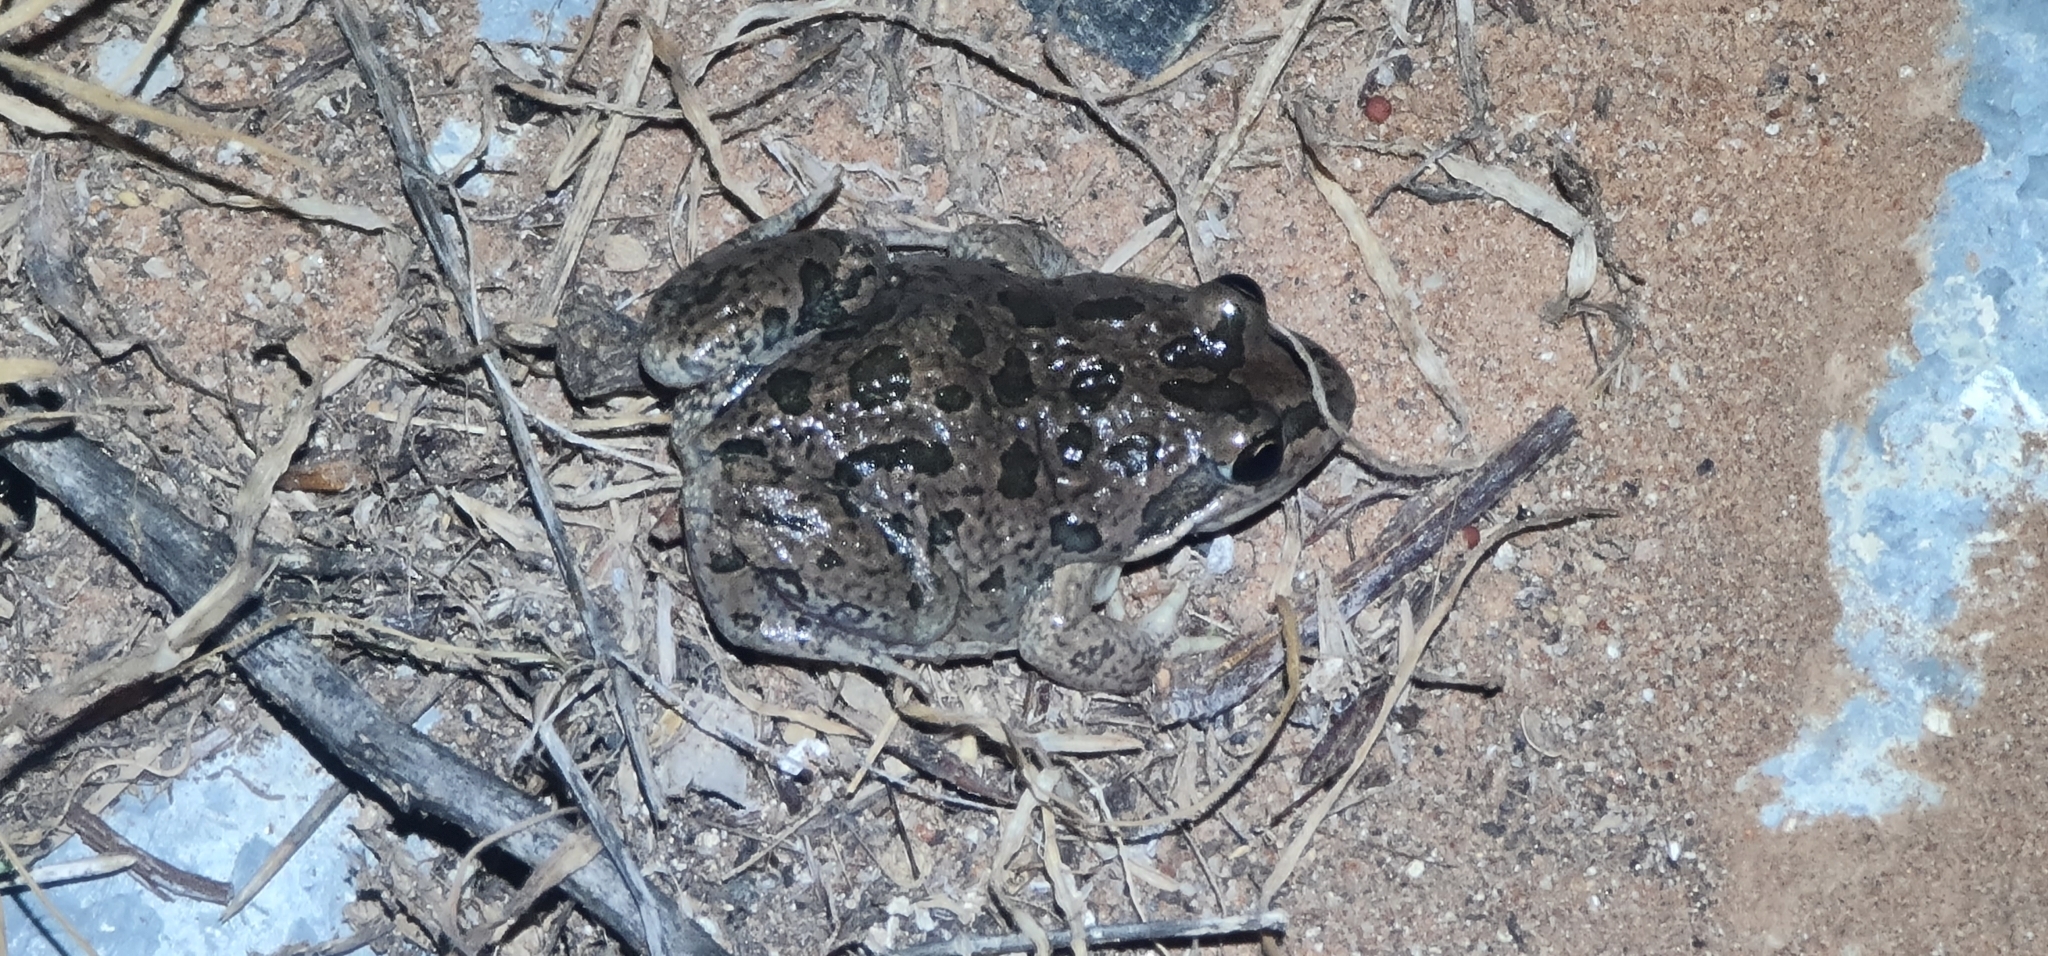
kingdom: Animalia
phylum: Chordata
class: Amphibia
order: Anura
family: Limnodynastidae
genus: Limnodynastes
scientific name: Limnodynastes tasmaniensis
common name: Spotted marsh frog
